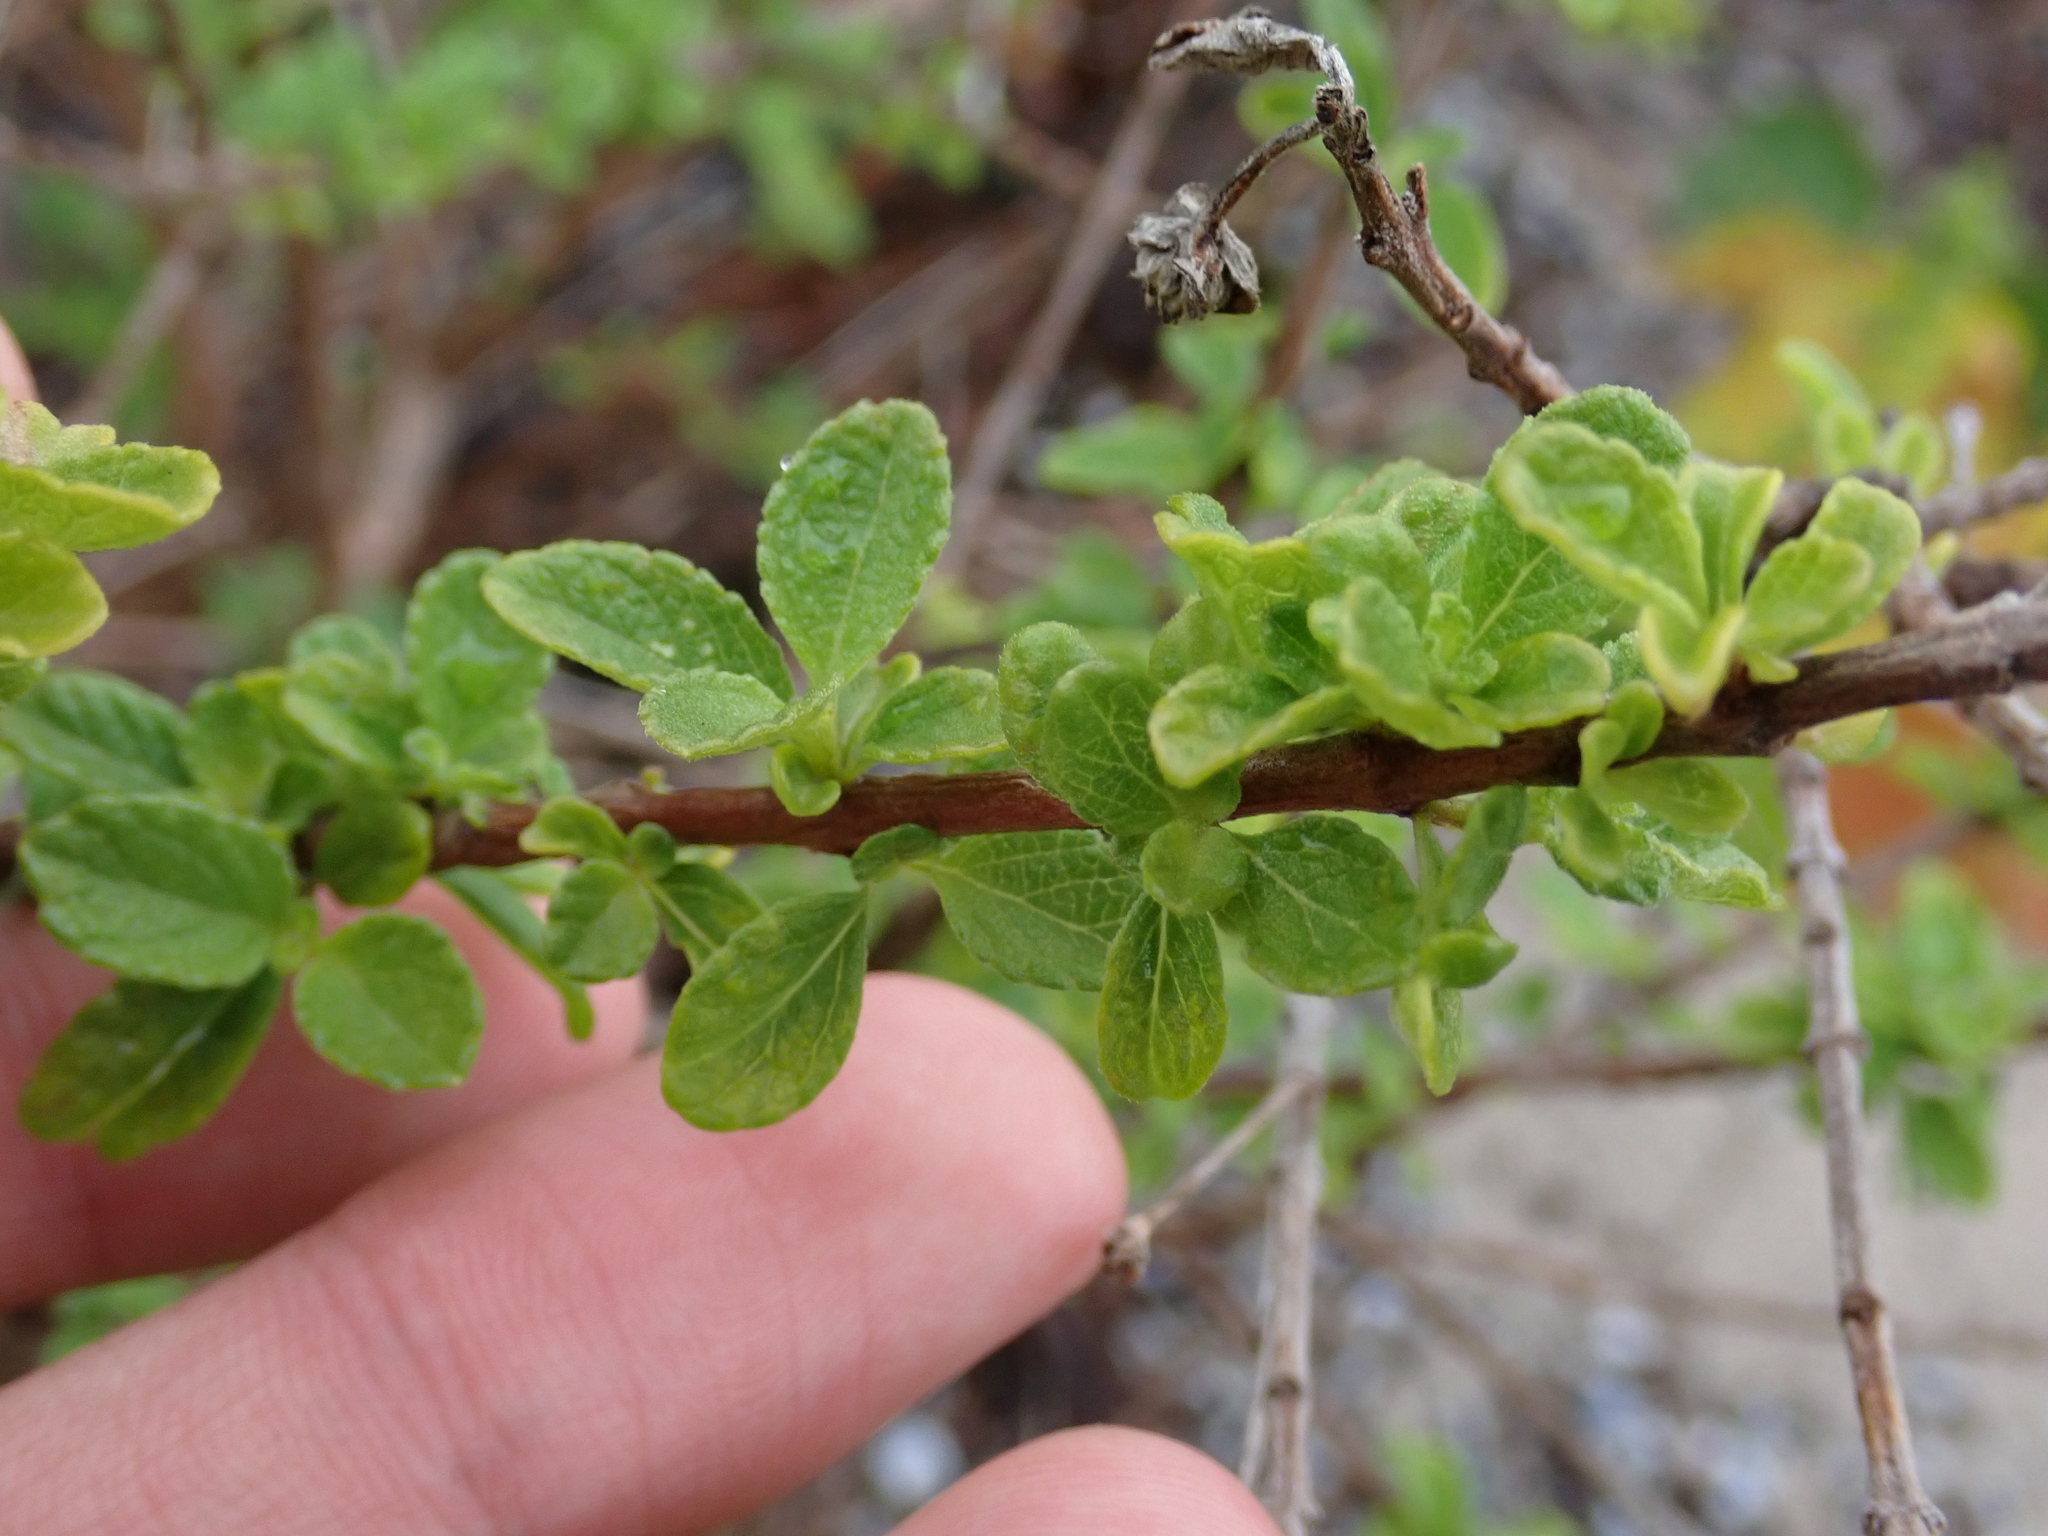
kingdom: Plantae
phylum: Tracheophyta
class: Magnoliopsida
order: Lamiales
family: Verbenaceae
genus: Lantana
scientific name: Lantana involucrata
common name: Black sage
